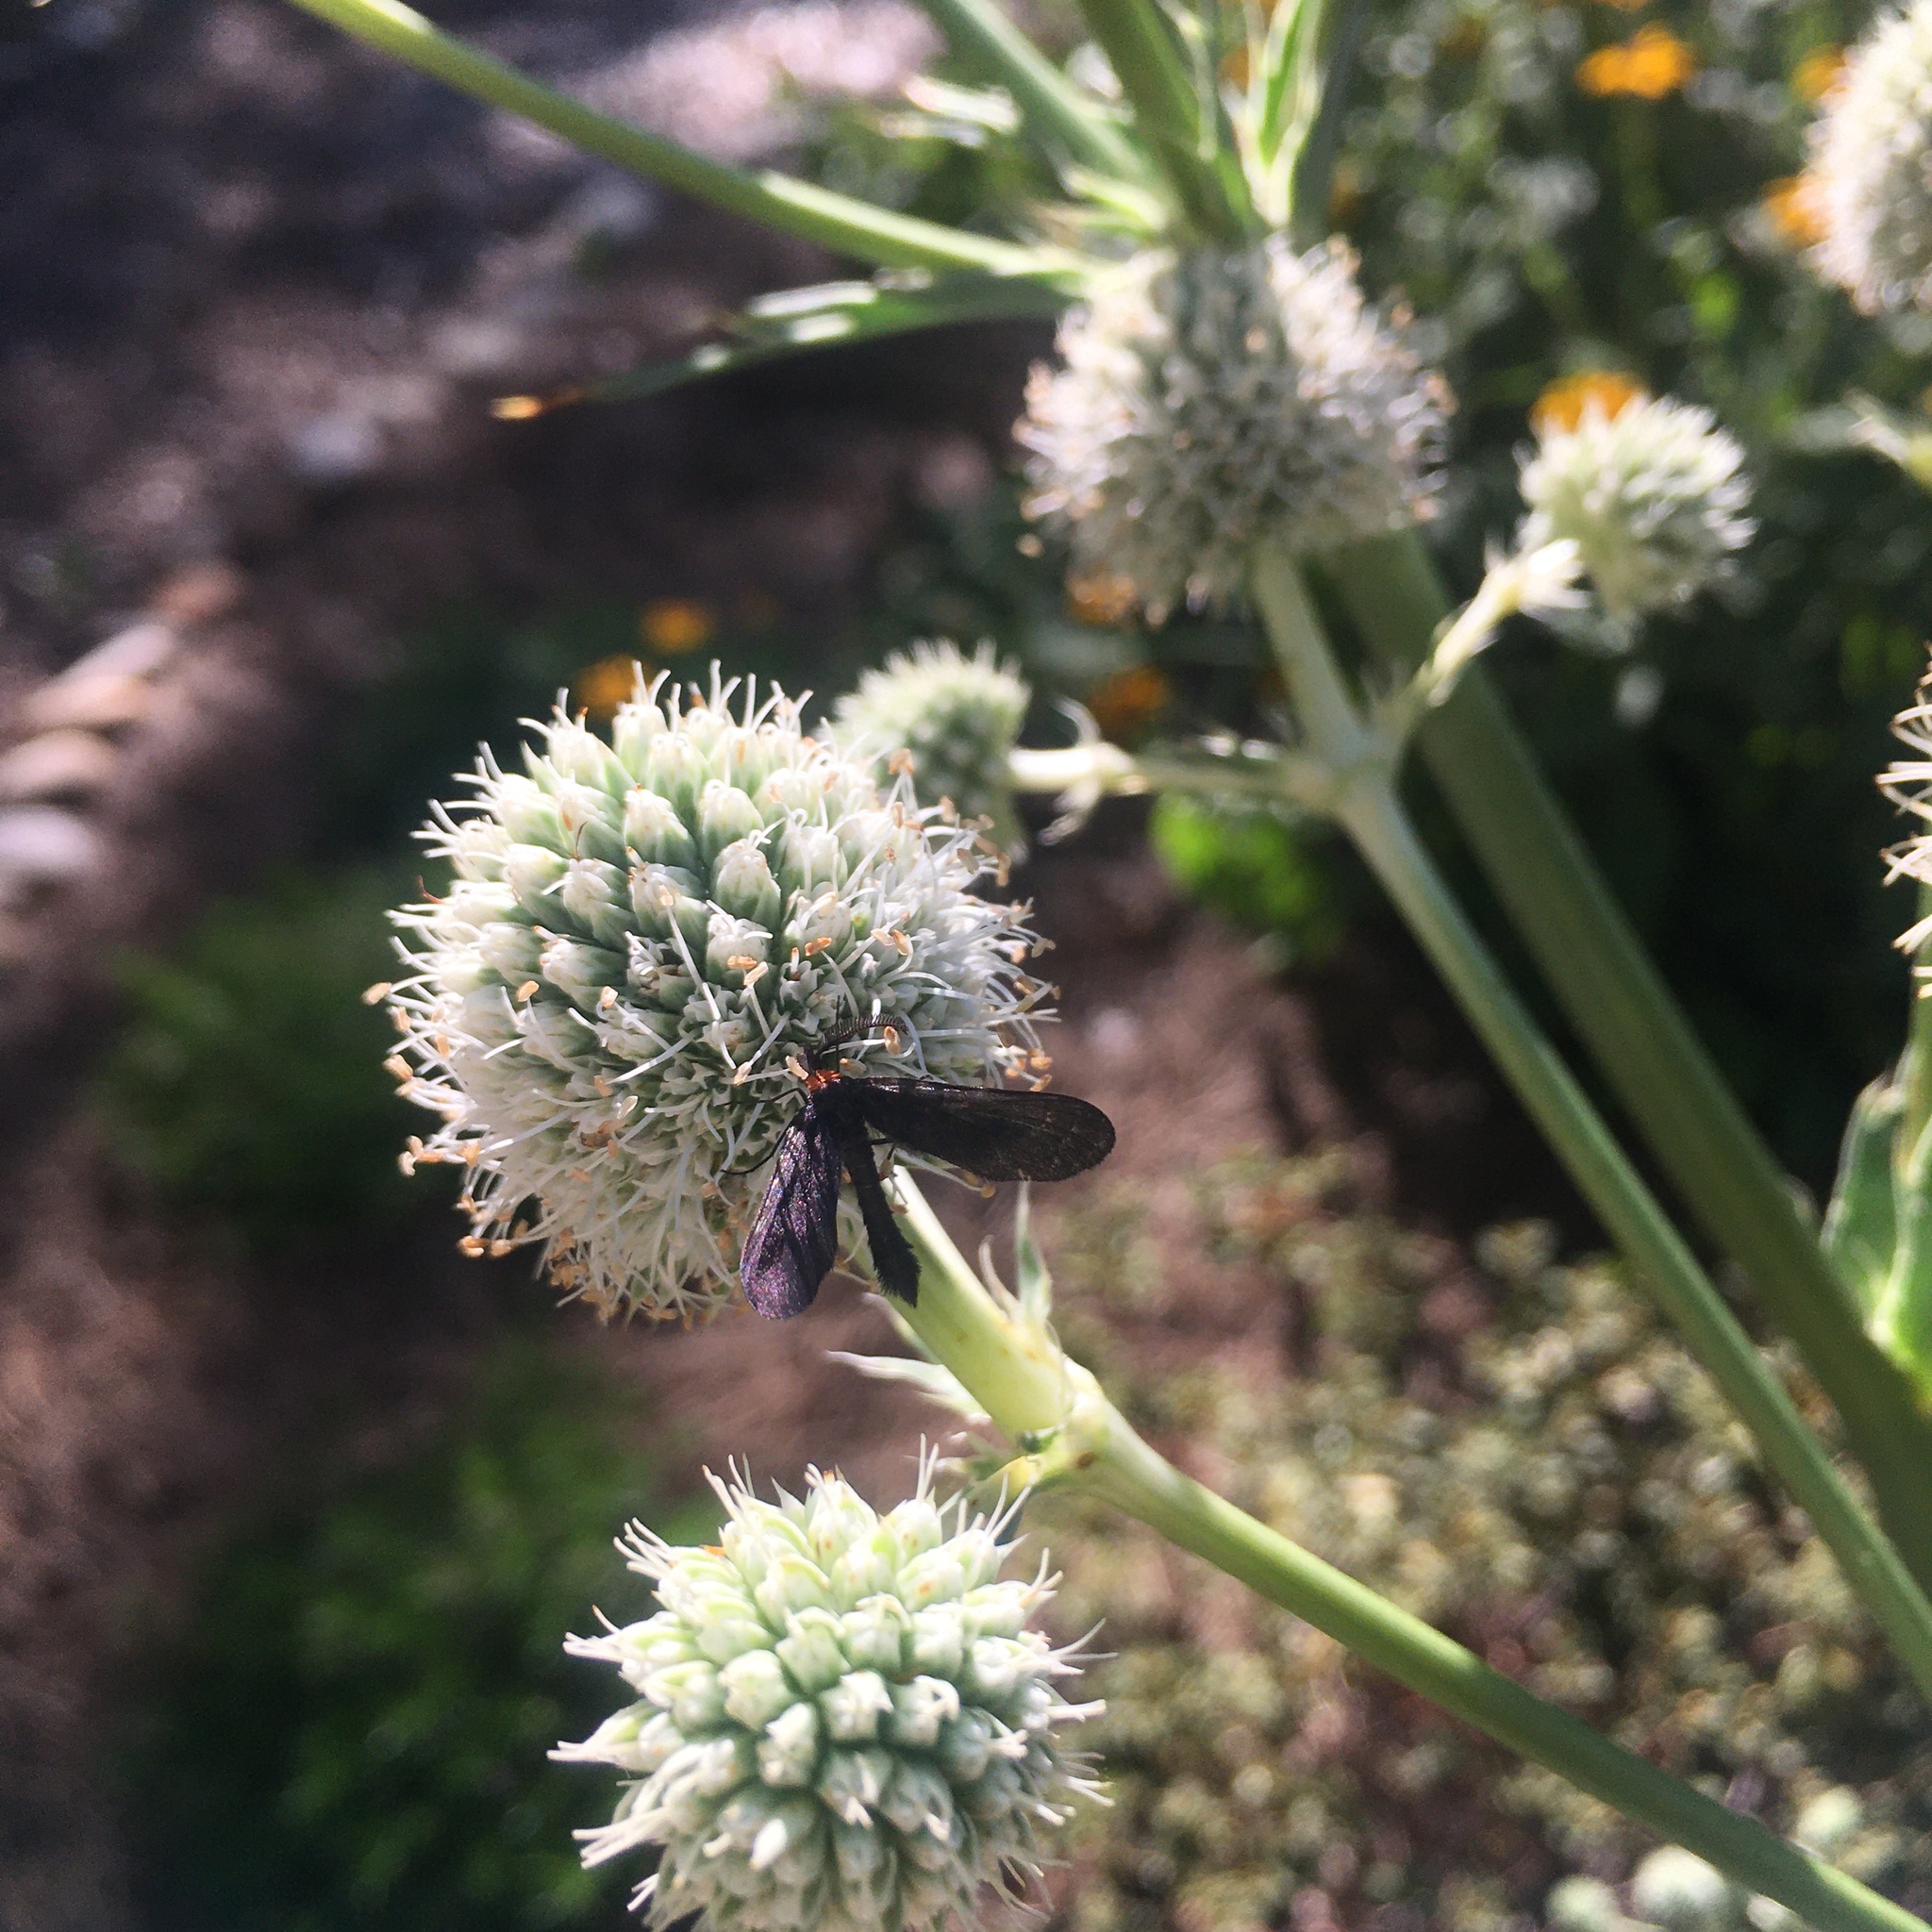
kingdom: Animalia
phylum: Arthropoda
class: Insecta
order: Lepidoptera
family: Zygaenidae
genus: Harrisina
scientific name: Harrisina americana
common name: Grapeleaf skeletonizer moth
